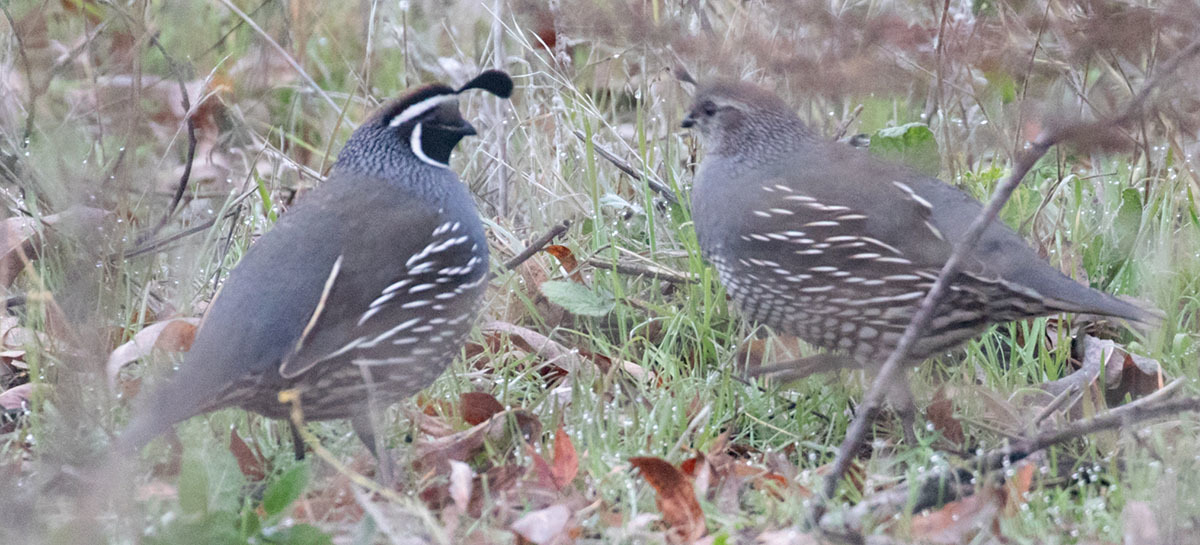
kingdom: Animalia
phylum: Chordata
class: Aves
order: Galliformes
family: Odontophoridae
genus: Callipepla
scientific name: Callipepla californica
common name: California quail
